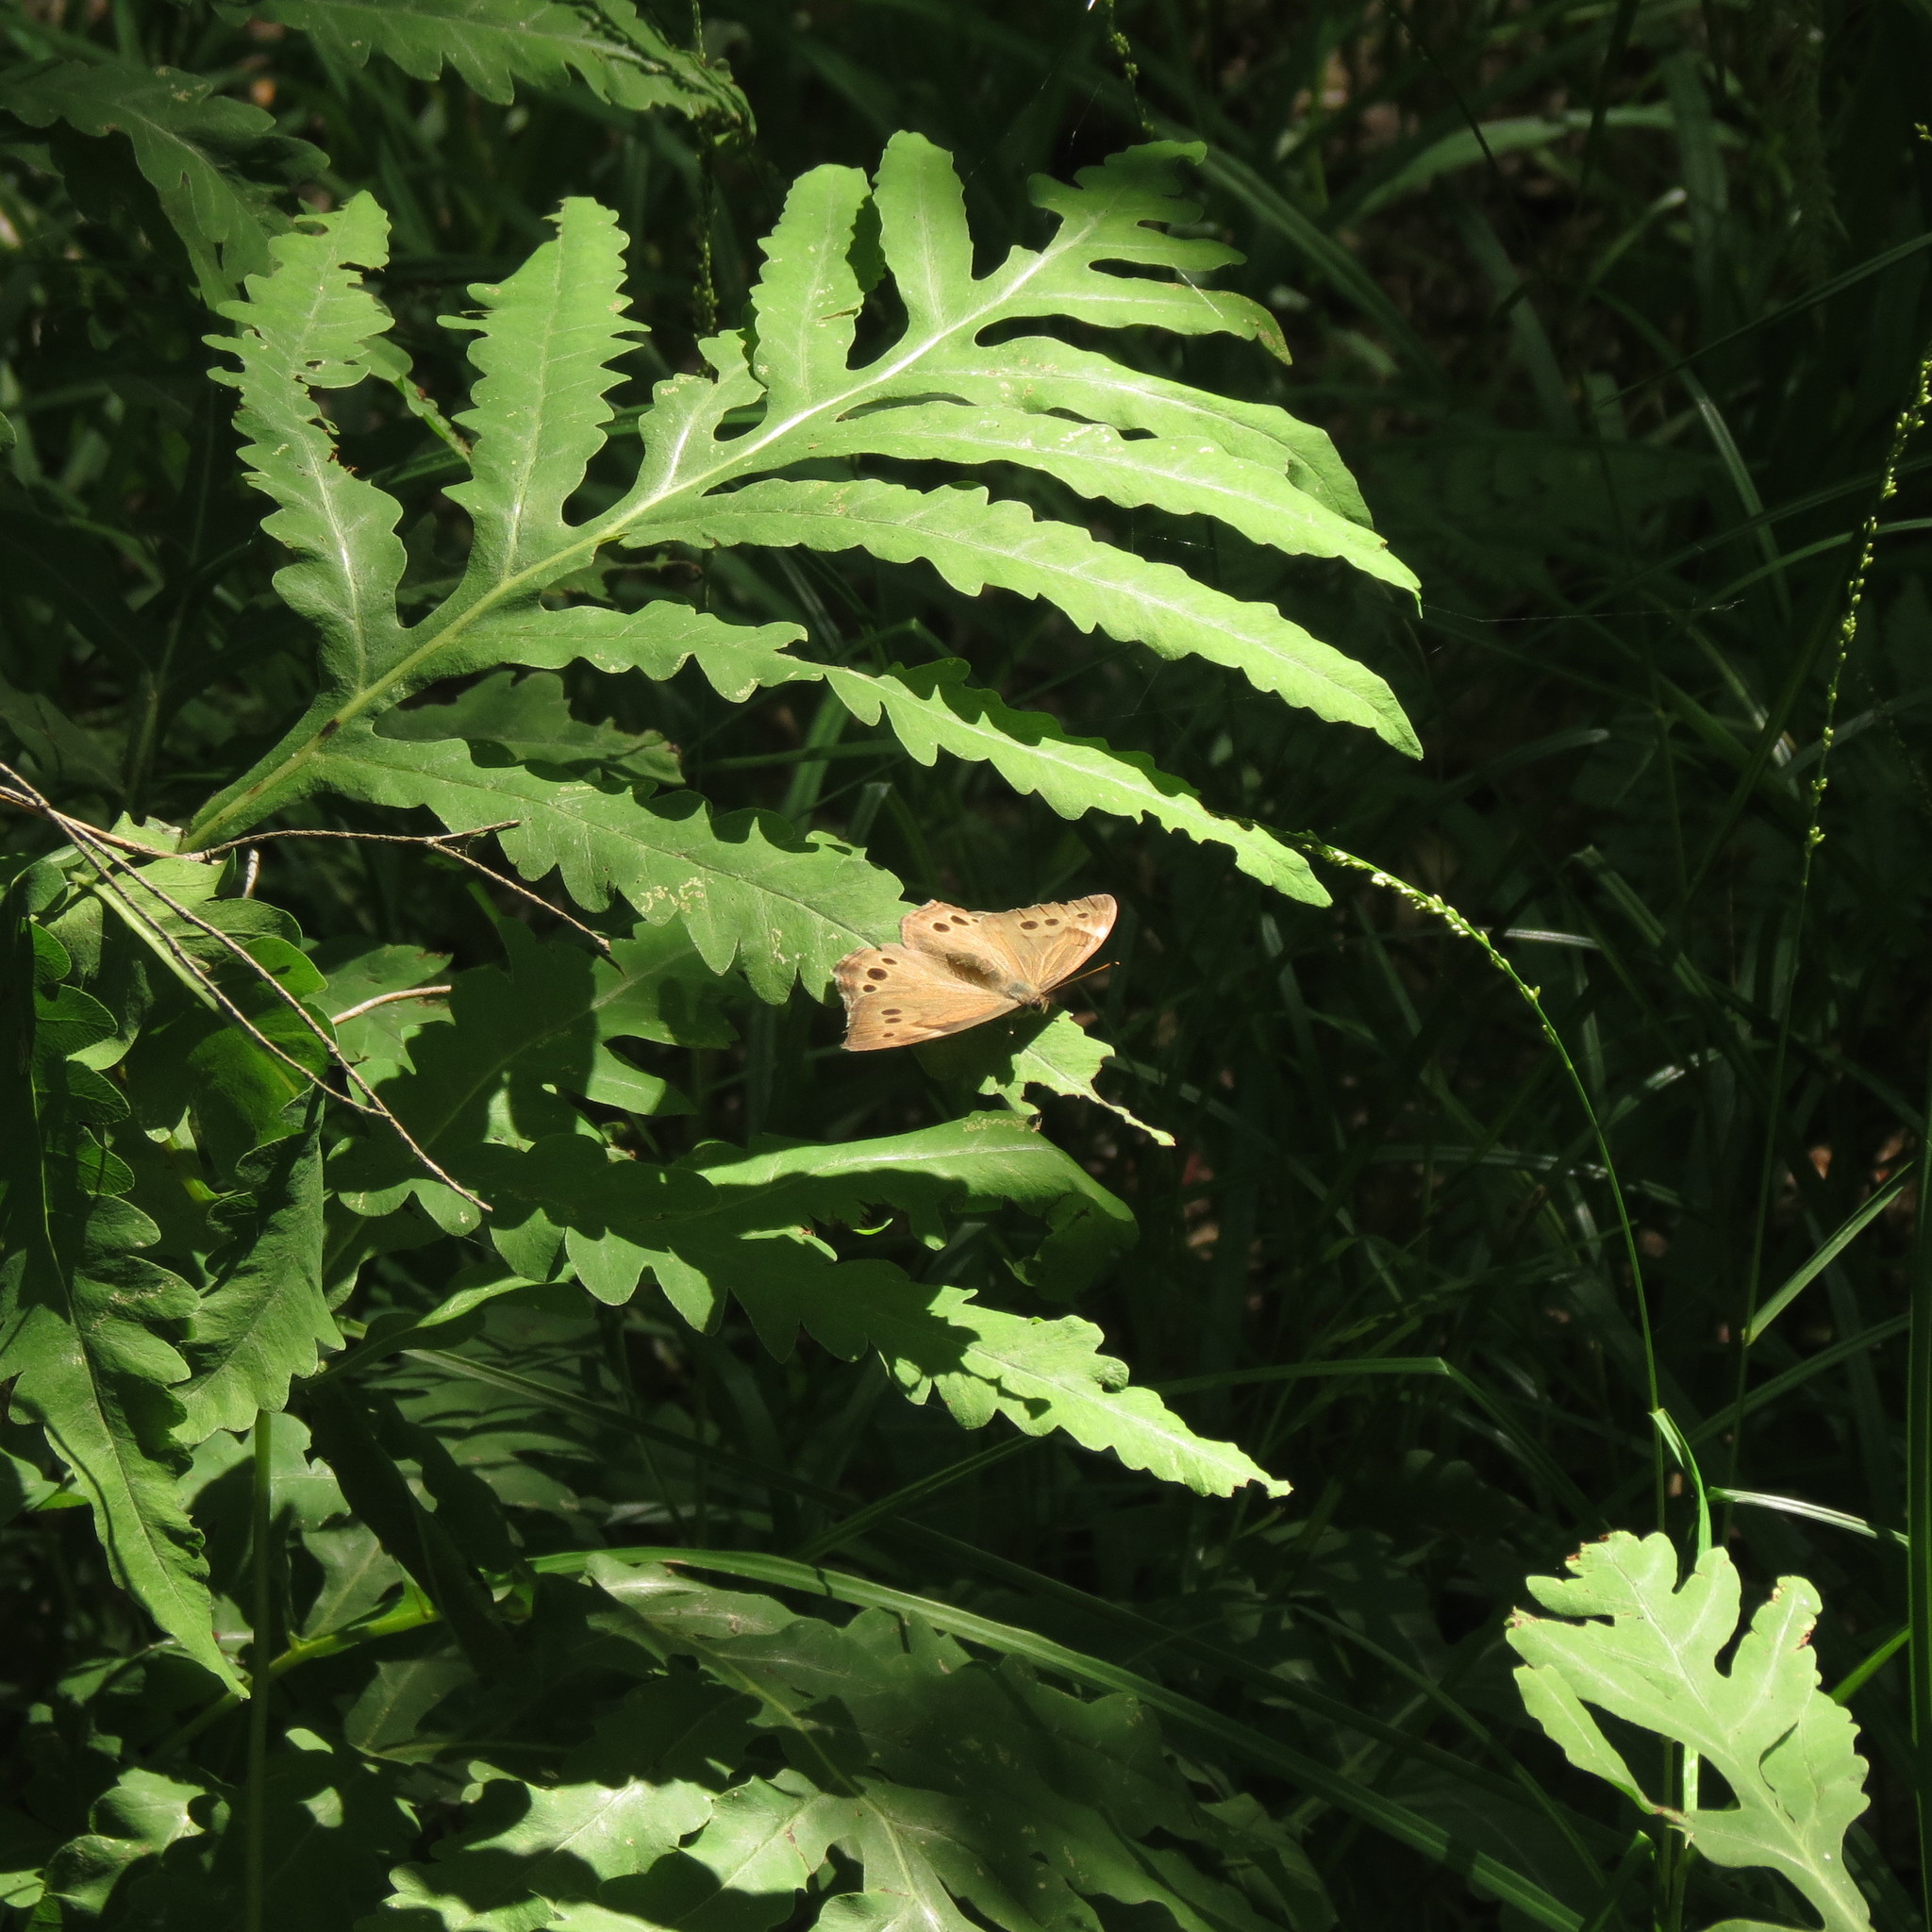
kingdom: Animalia
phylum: Arthropoda
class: Insecta
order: Lepidoptera
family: Nymphalidae
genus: Lethe
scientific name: Lethe anthedon
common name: Northern pearly-eye
